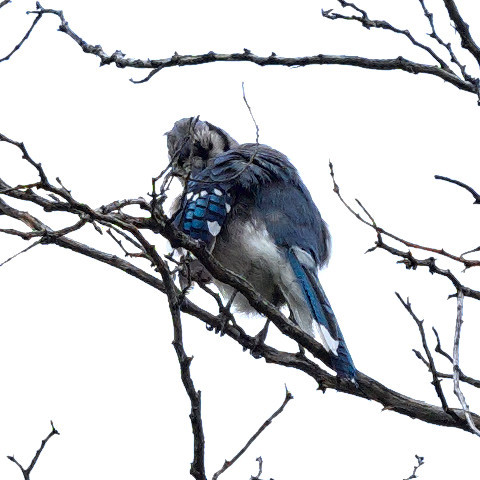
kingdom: Animalia
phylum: Chordata
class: Aves
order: Passeriformes
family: Corvidae
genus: Cyanocitta
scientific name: Cyanocitta cristata
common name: Blue jay
